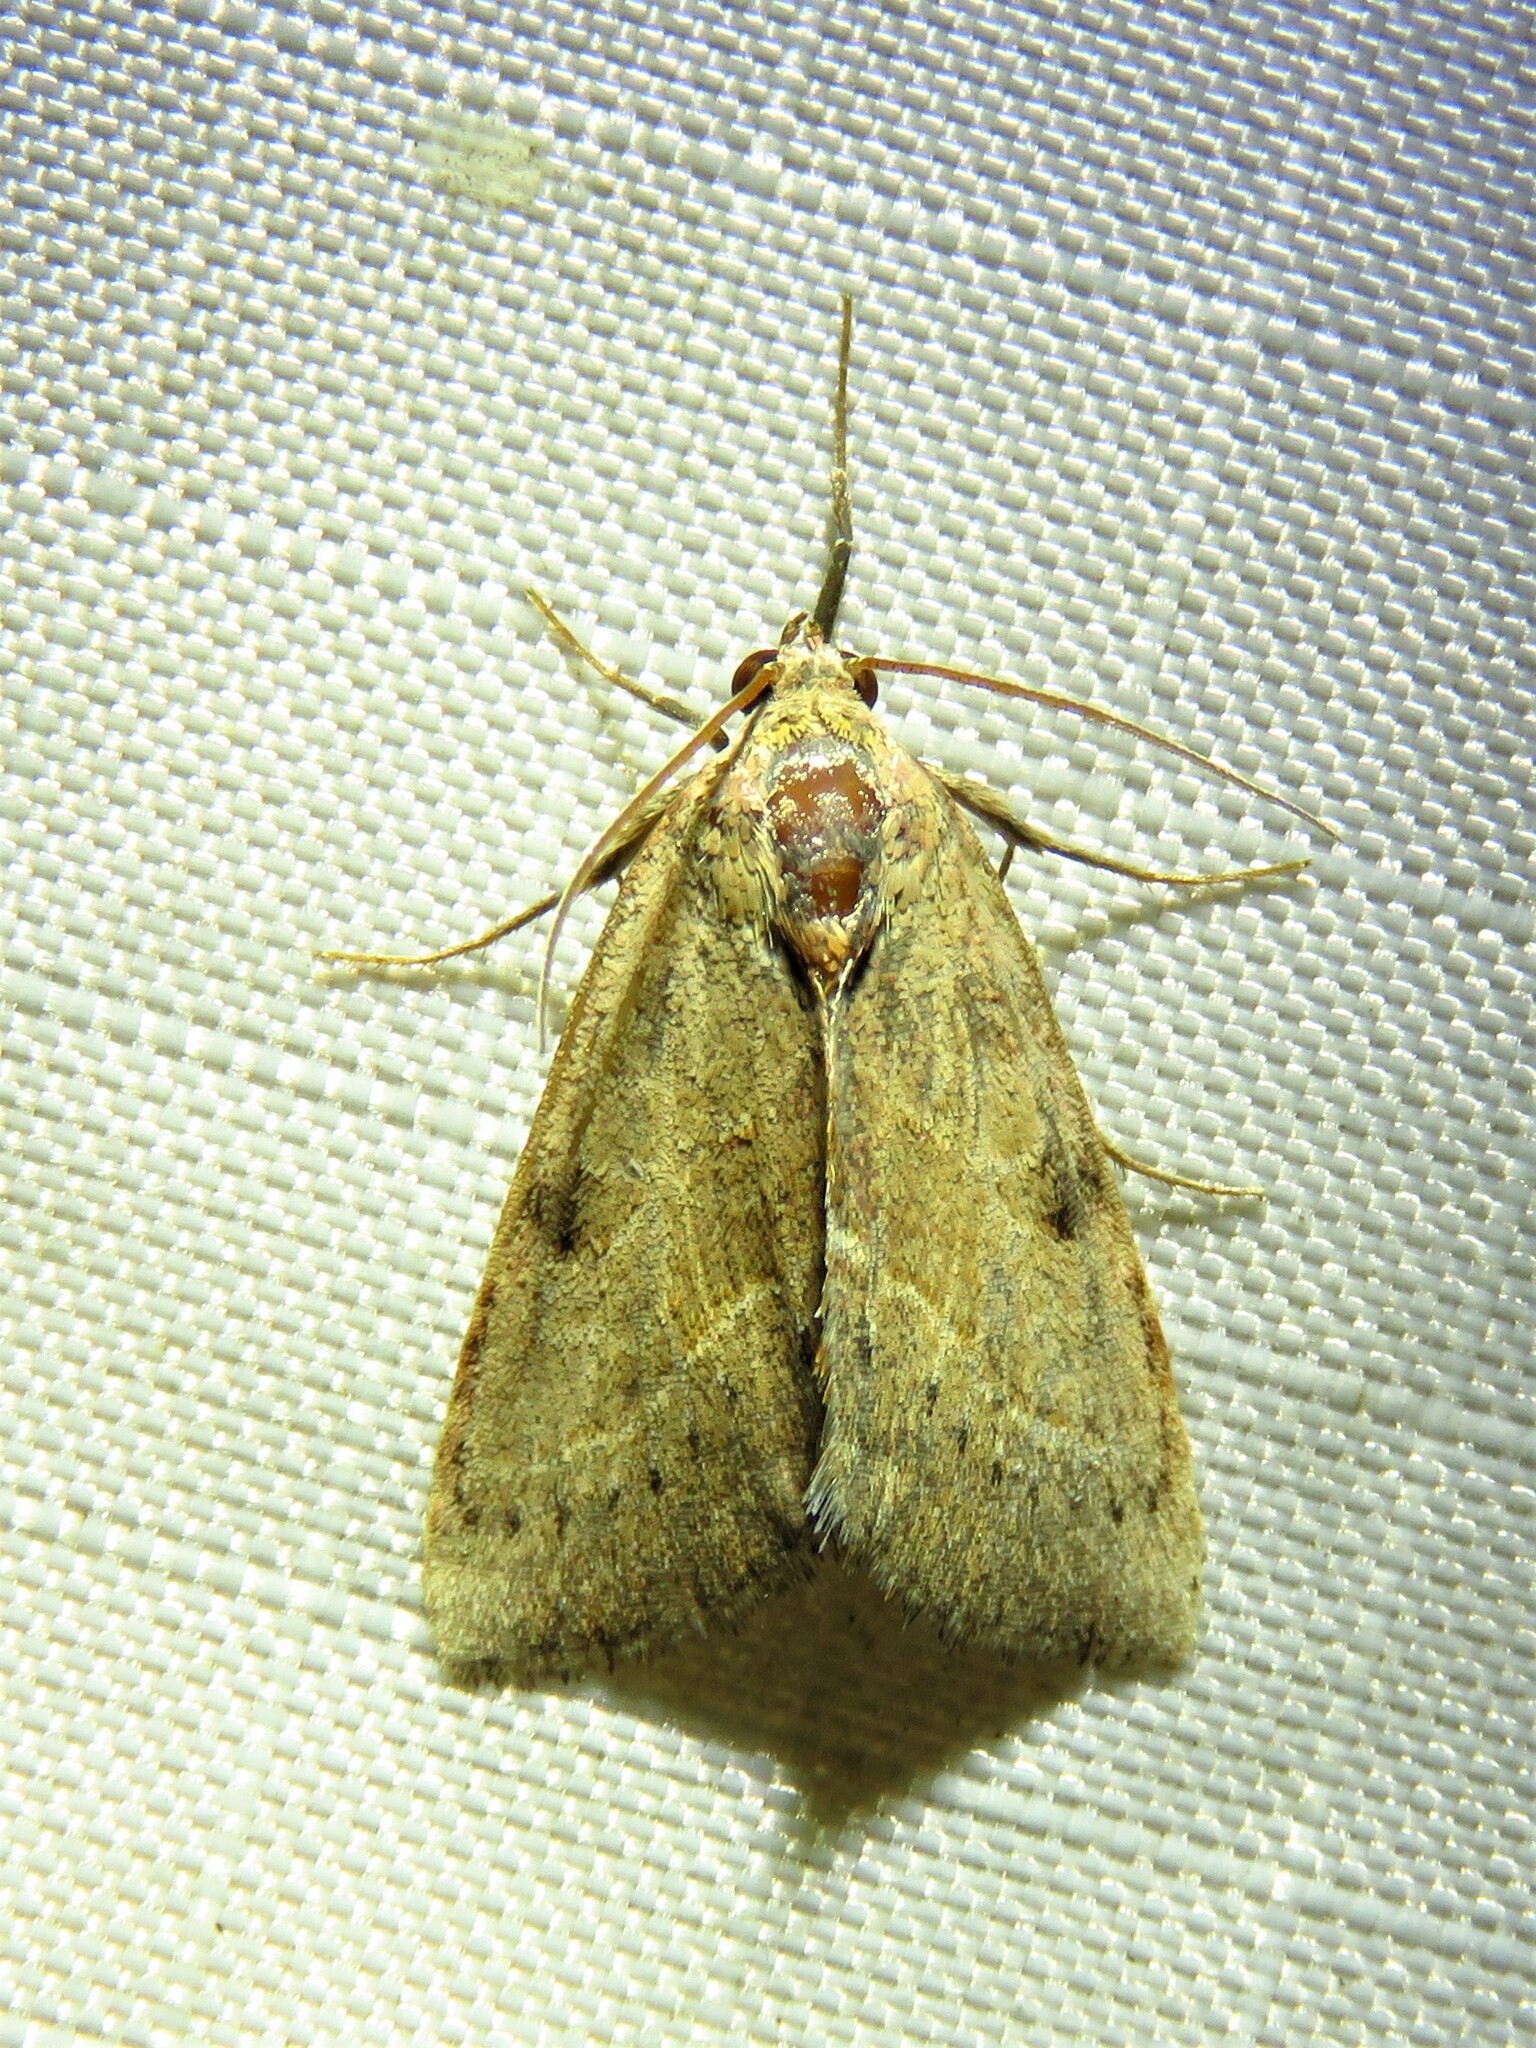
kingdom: Animalia
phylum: Arthropoda
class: Insecta
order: Lepidoptera
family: Noctuidae
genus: Galgula
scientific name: Galgula partita
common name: Wedgeling
